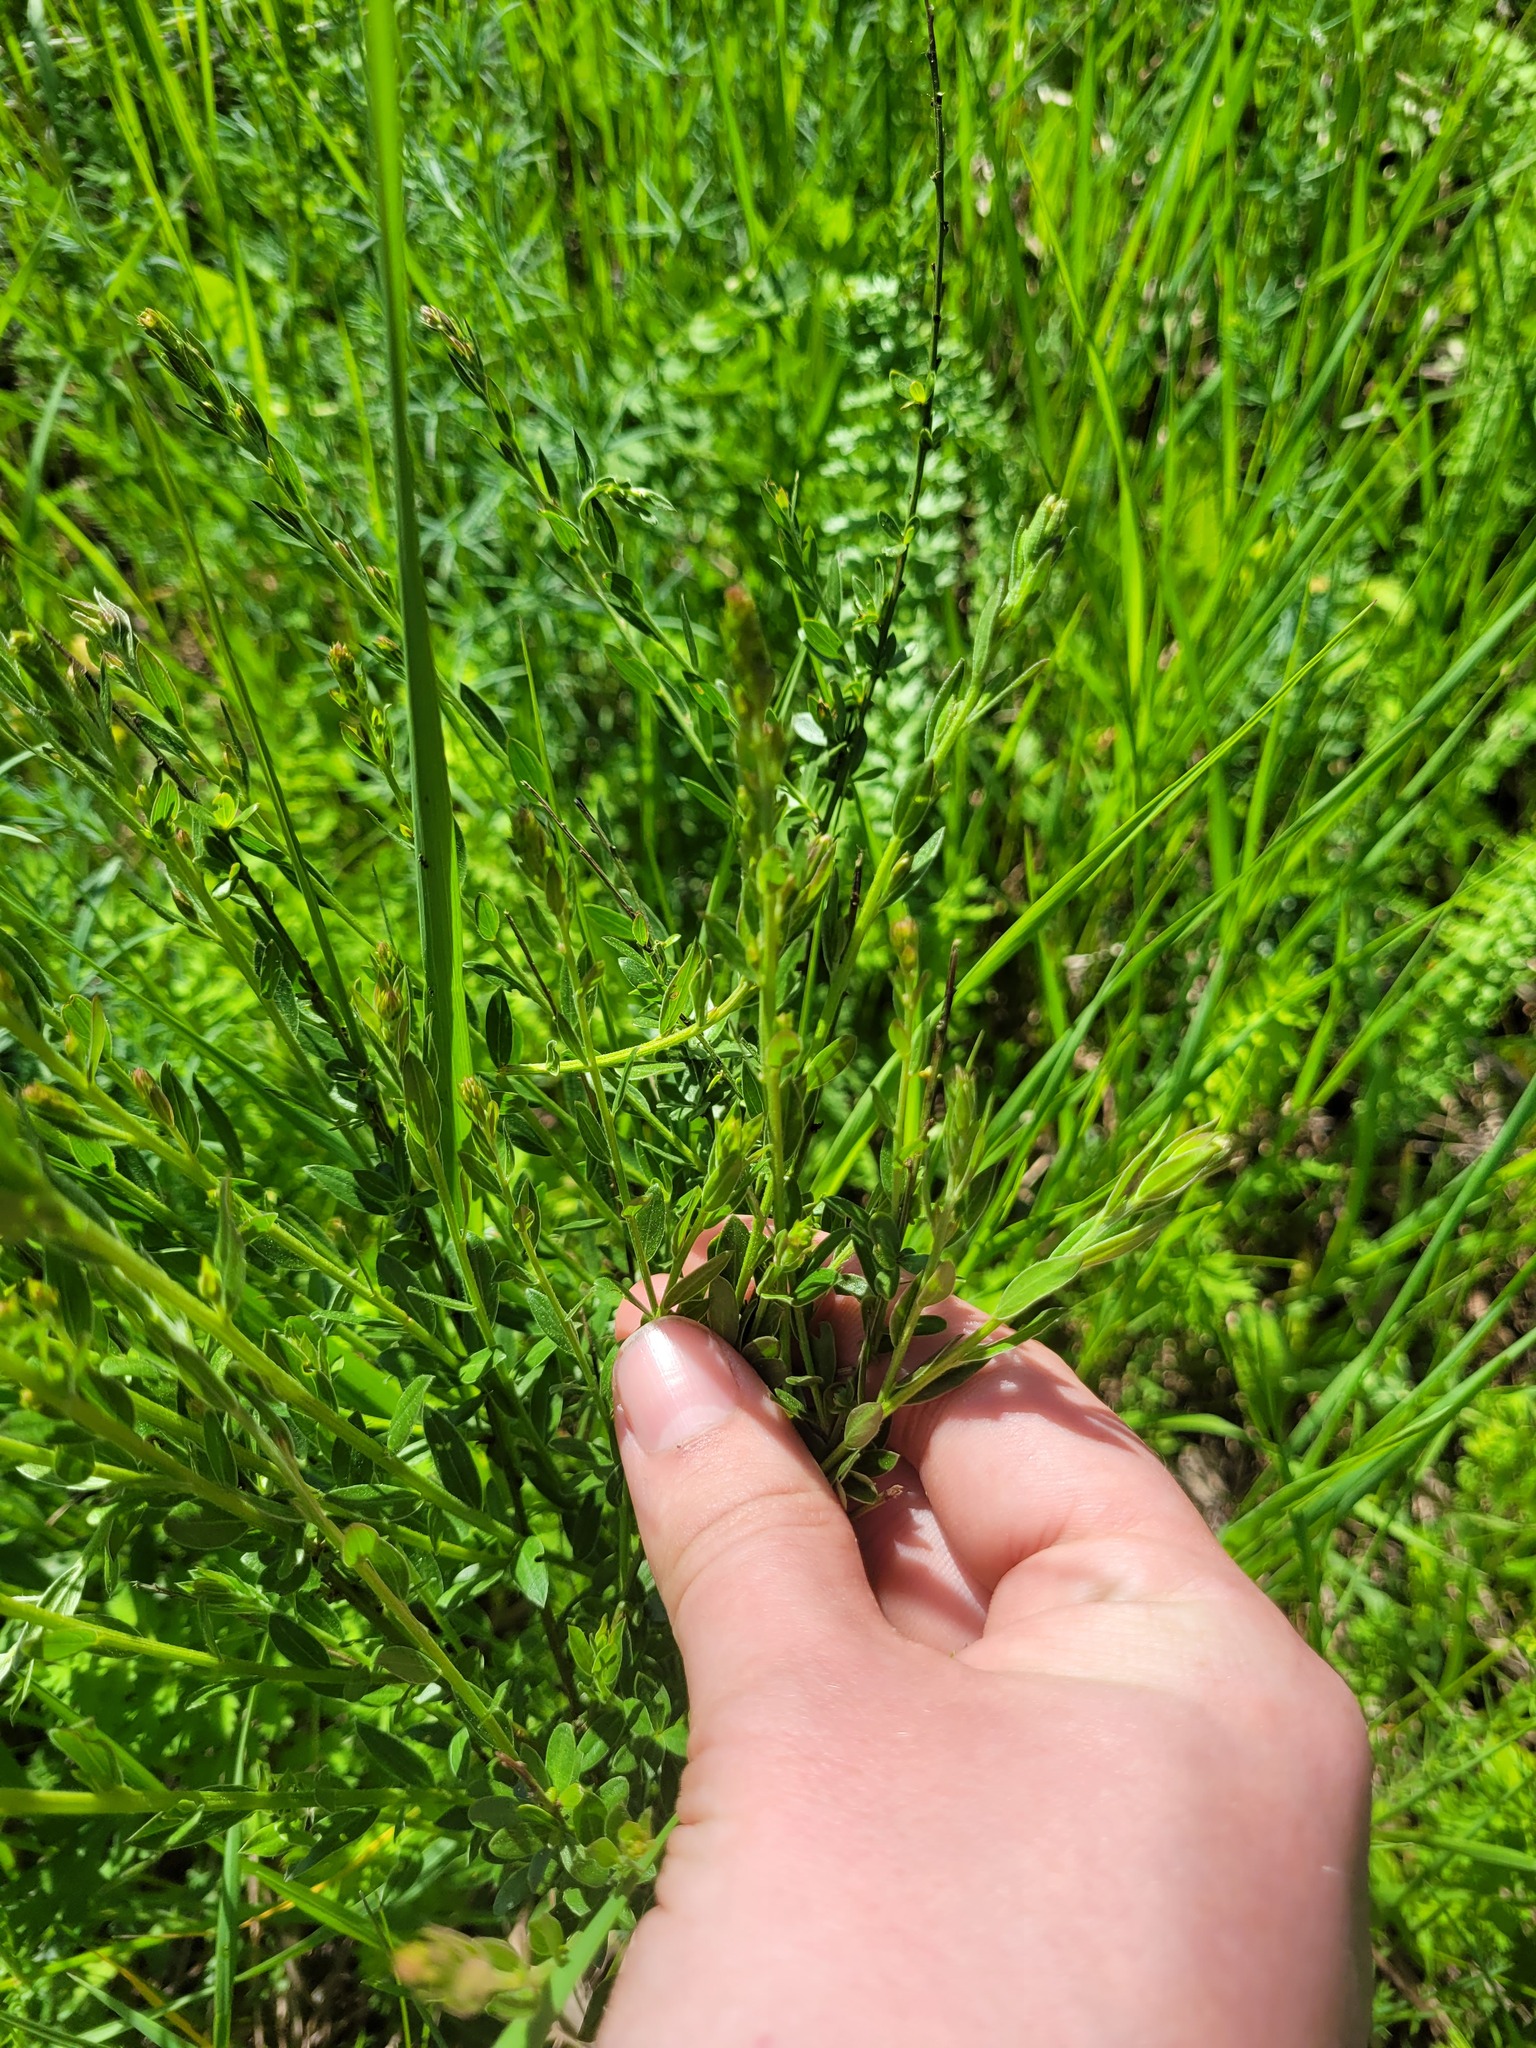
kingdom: Plantae
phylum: Tracheophyta
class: Magnoliopsida
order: Fabales
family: Fabaceae
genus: Genista
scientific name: Genista tinctoria
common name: Dyer's greenweed
